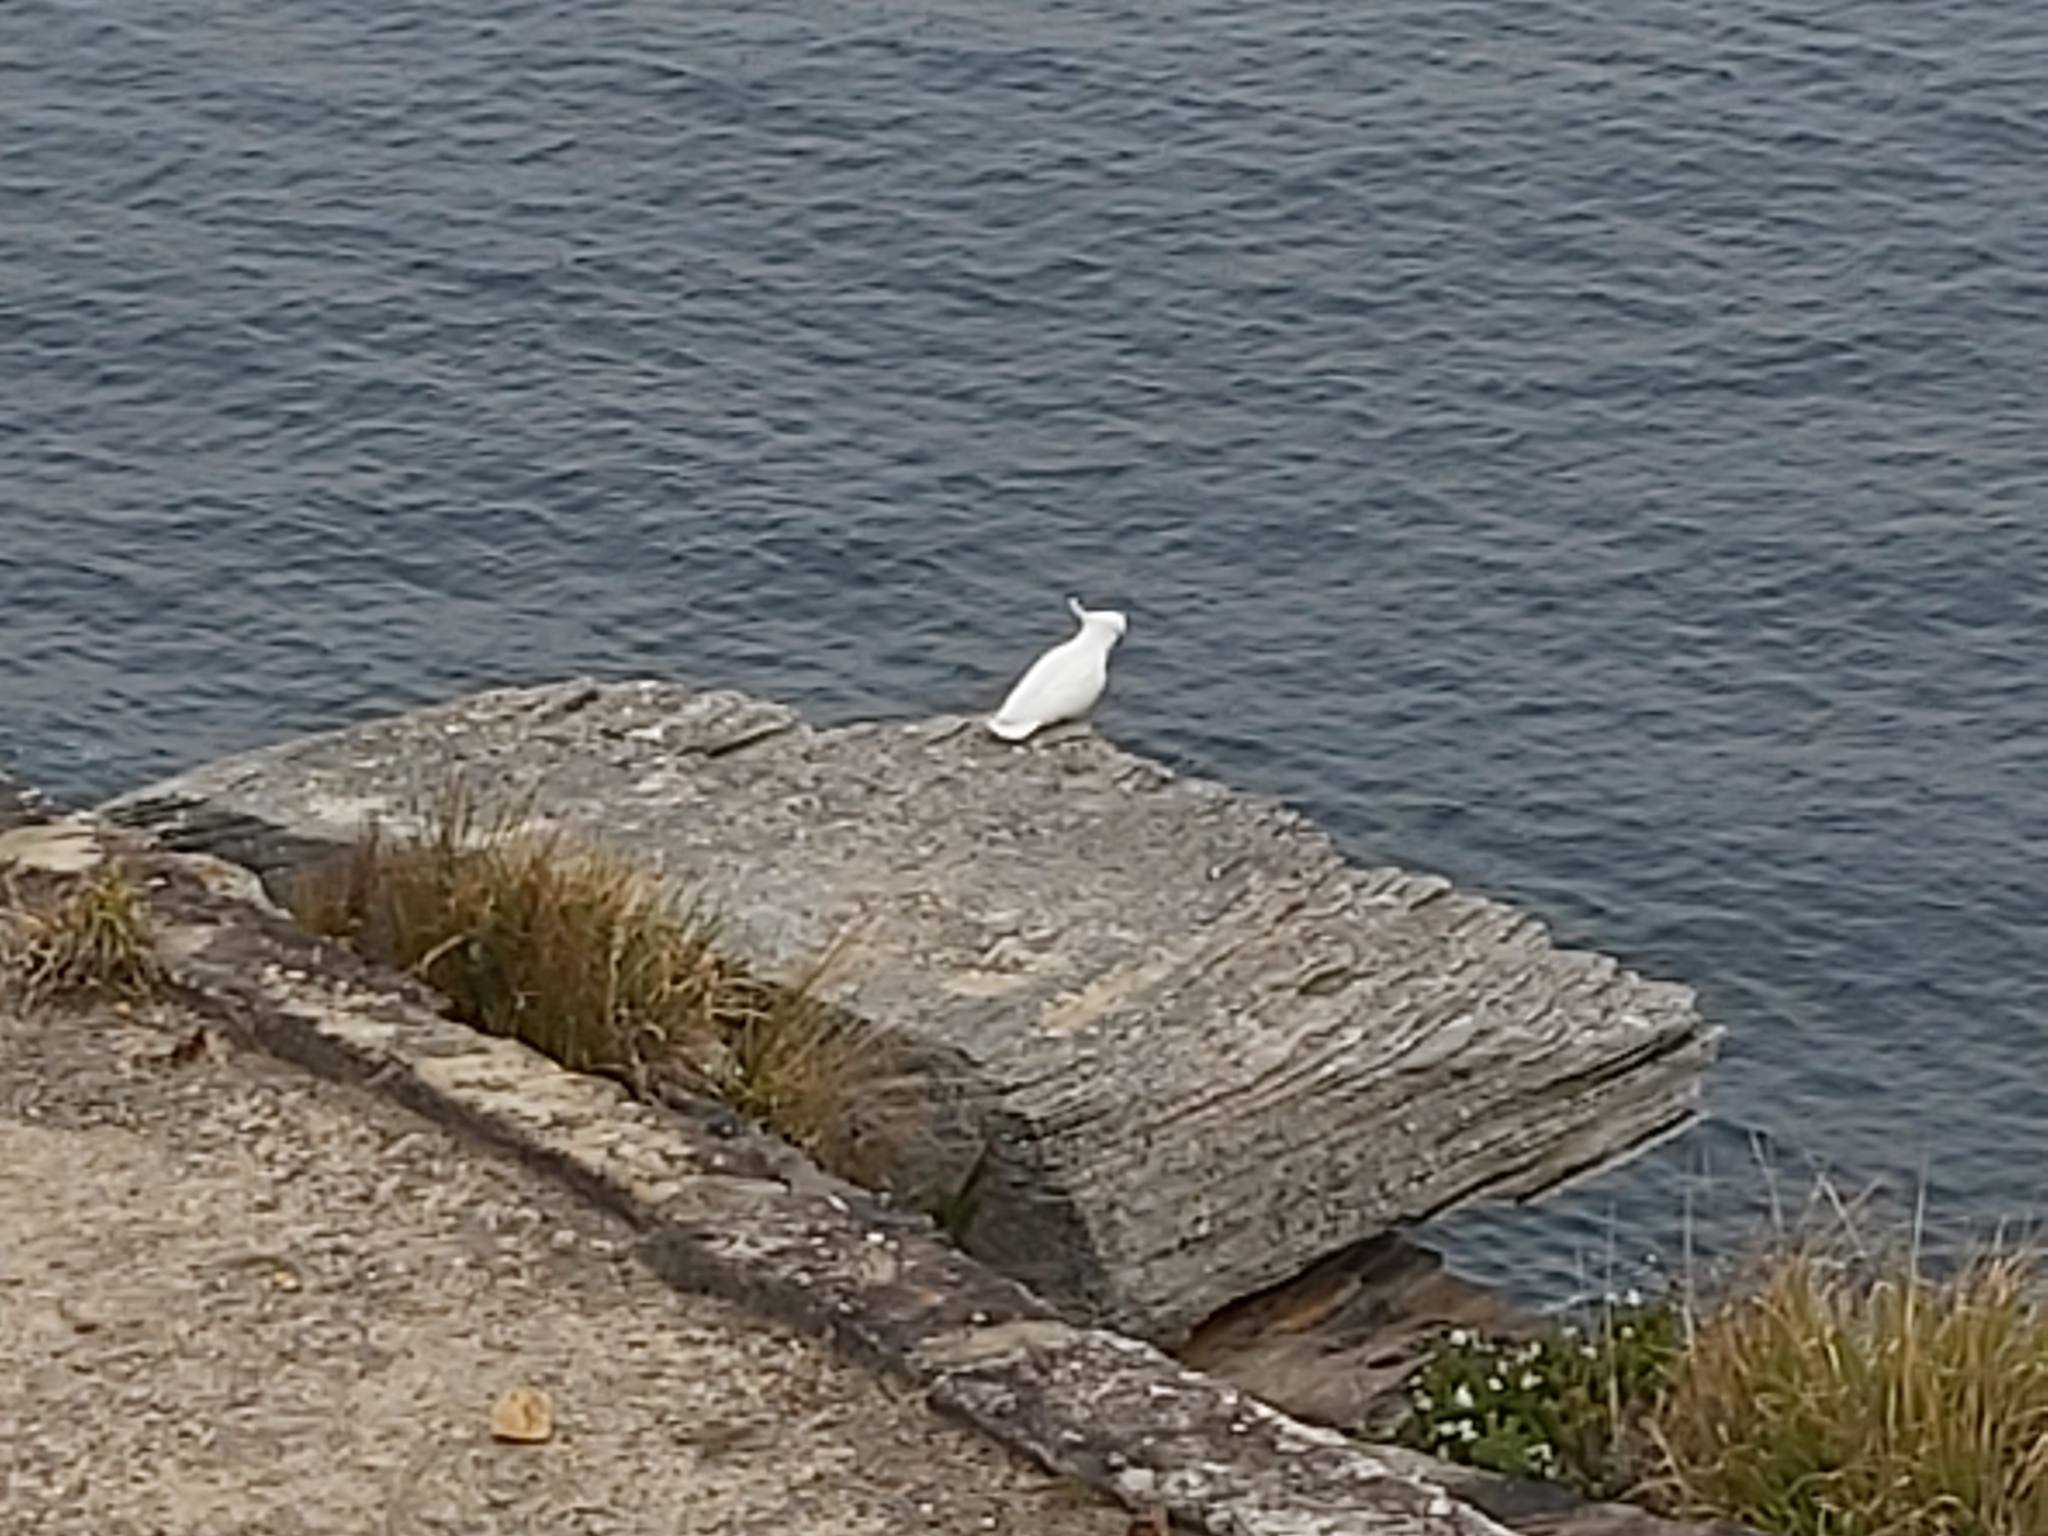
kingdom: Animalia
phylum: Chordata
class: Aves
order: Psittaciformes
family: Psittacidae
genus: Cacatua
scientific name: Cacatua galerita
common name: Sulphur-crested cockatoo
